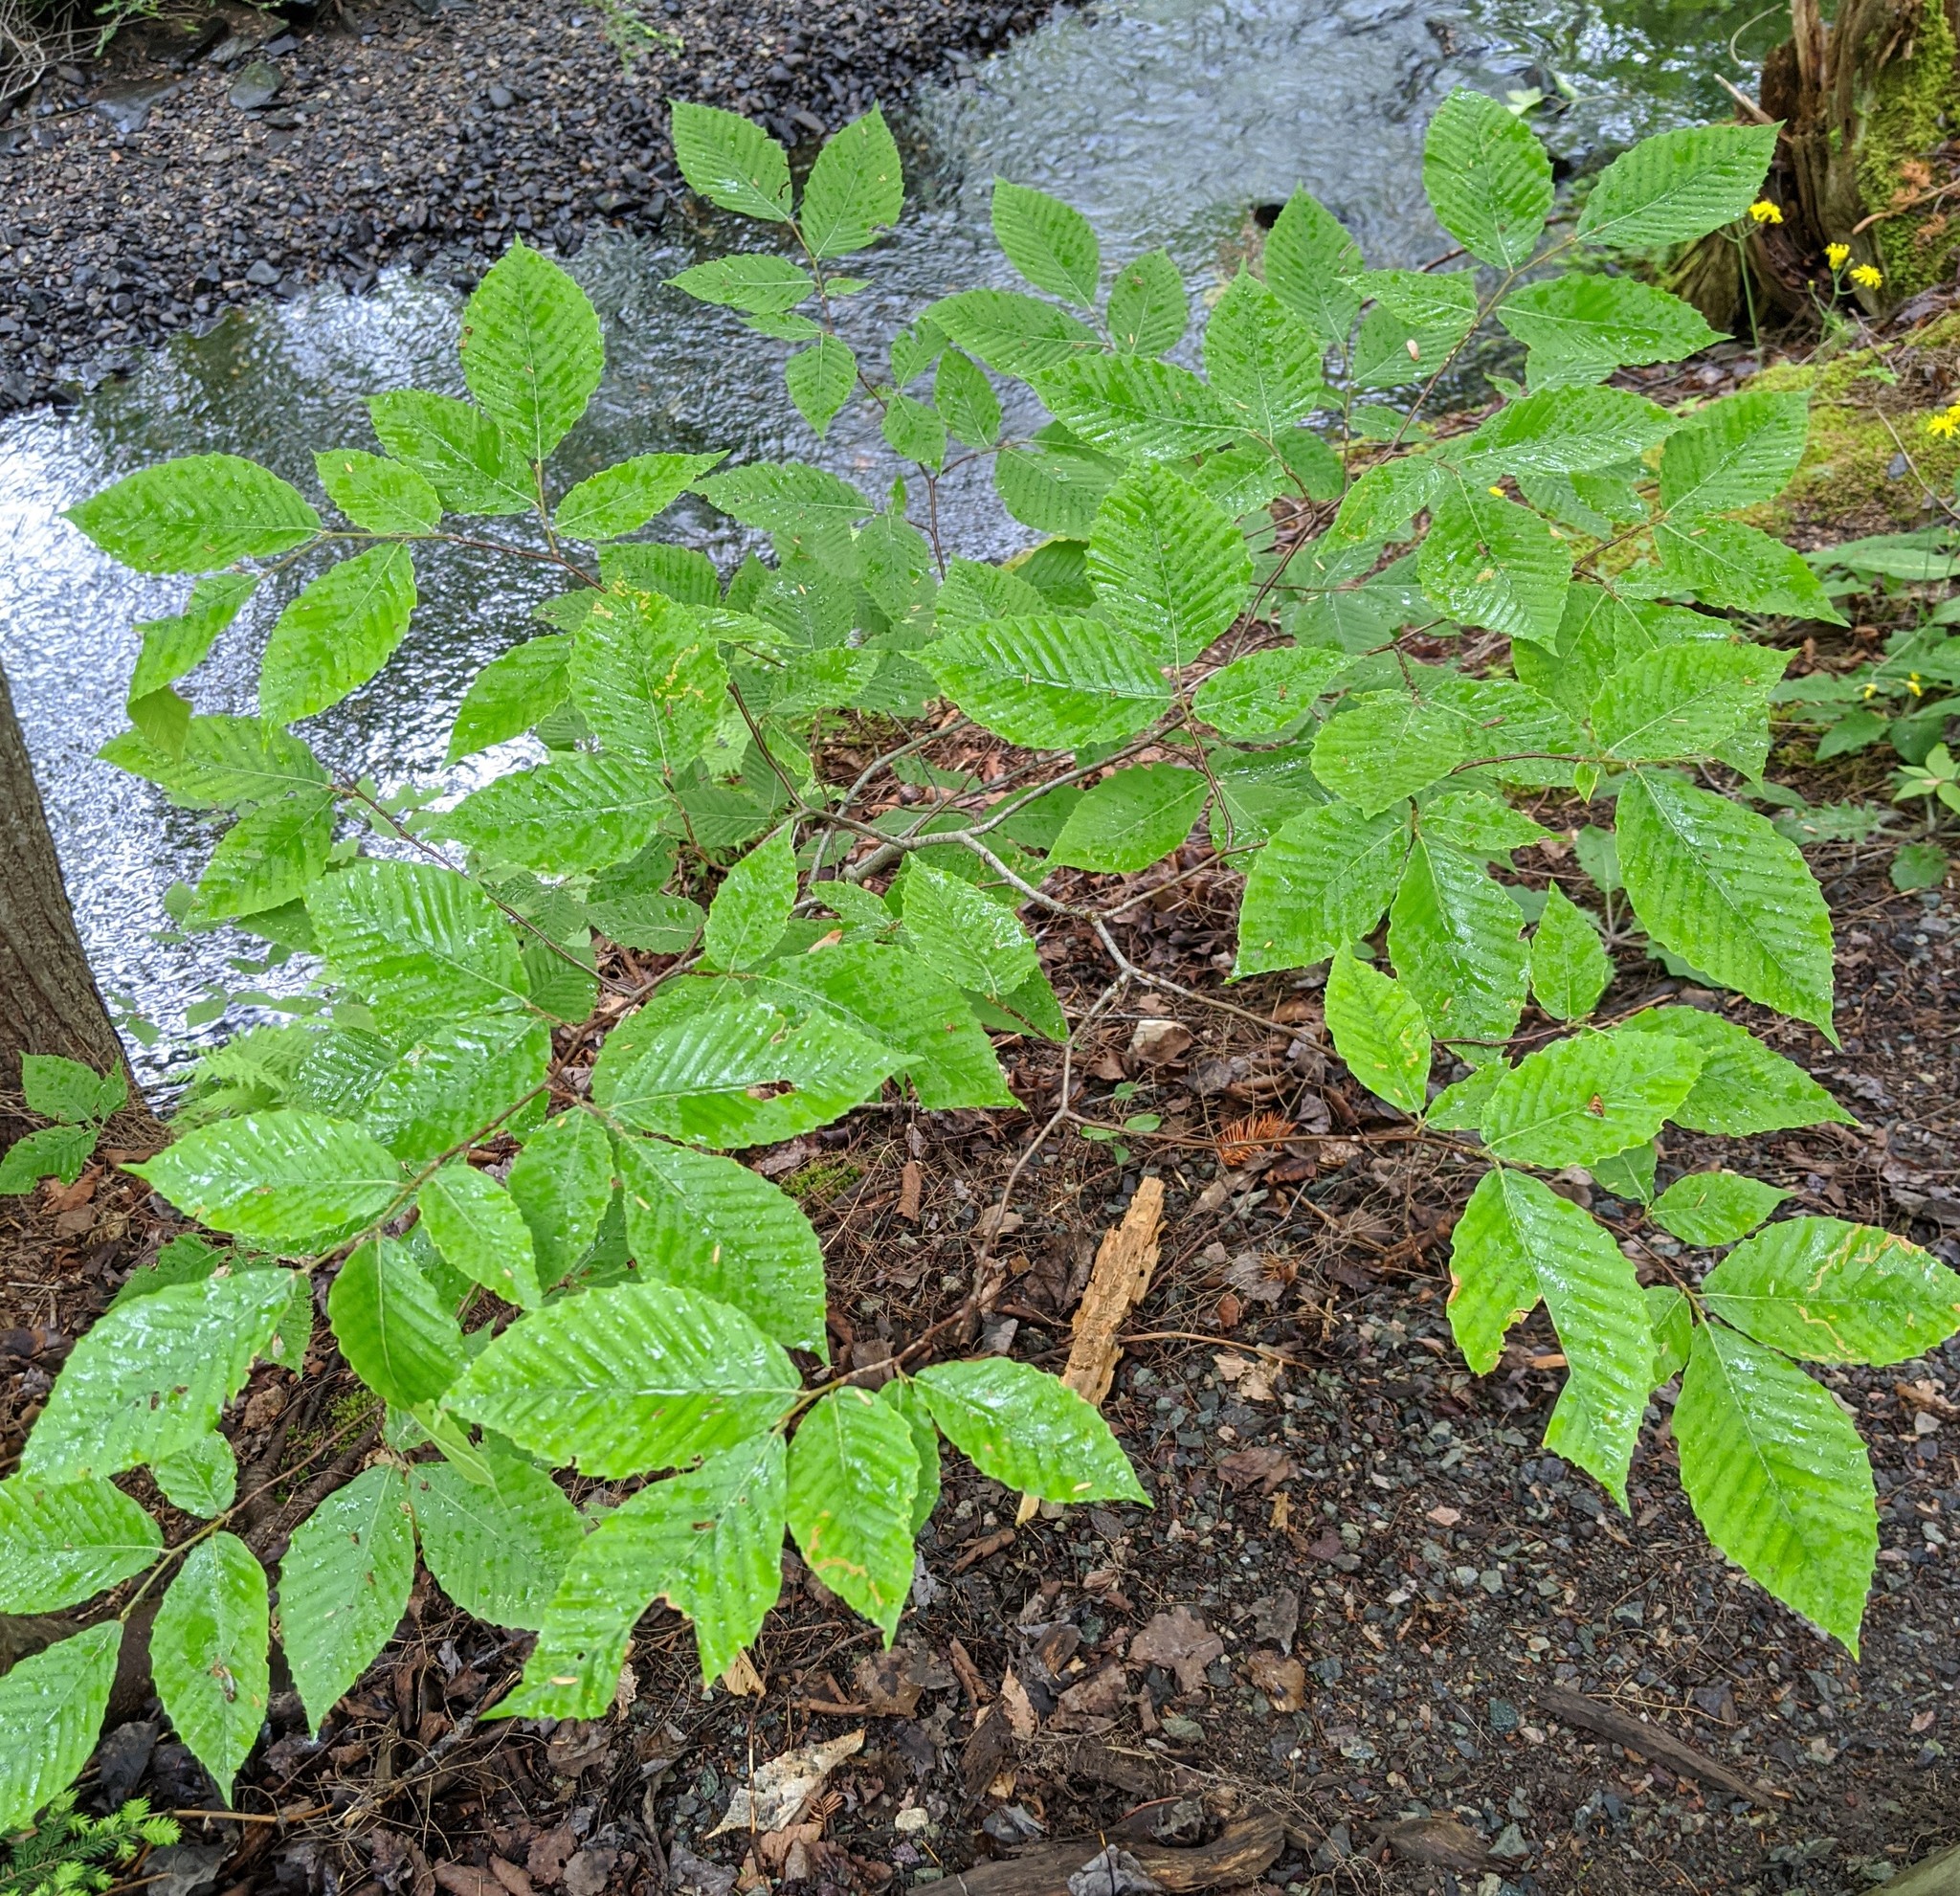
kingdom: Plantae
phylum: Tracheophyta
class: Magnoliopsida
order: Fagales
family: Fagaceae
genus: Fagus
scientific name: Fagus grandifolia
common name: American beech
